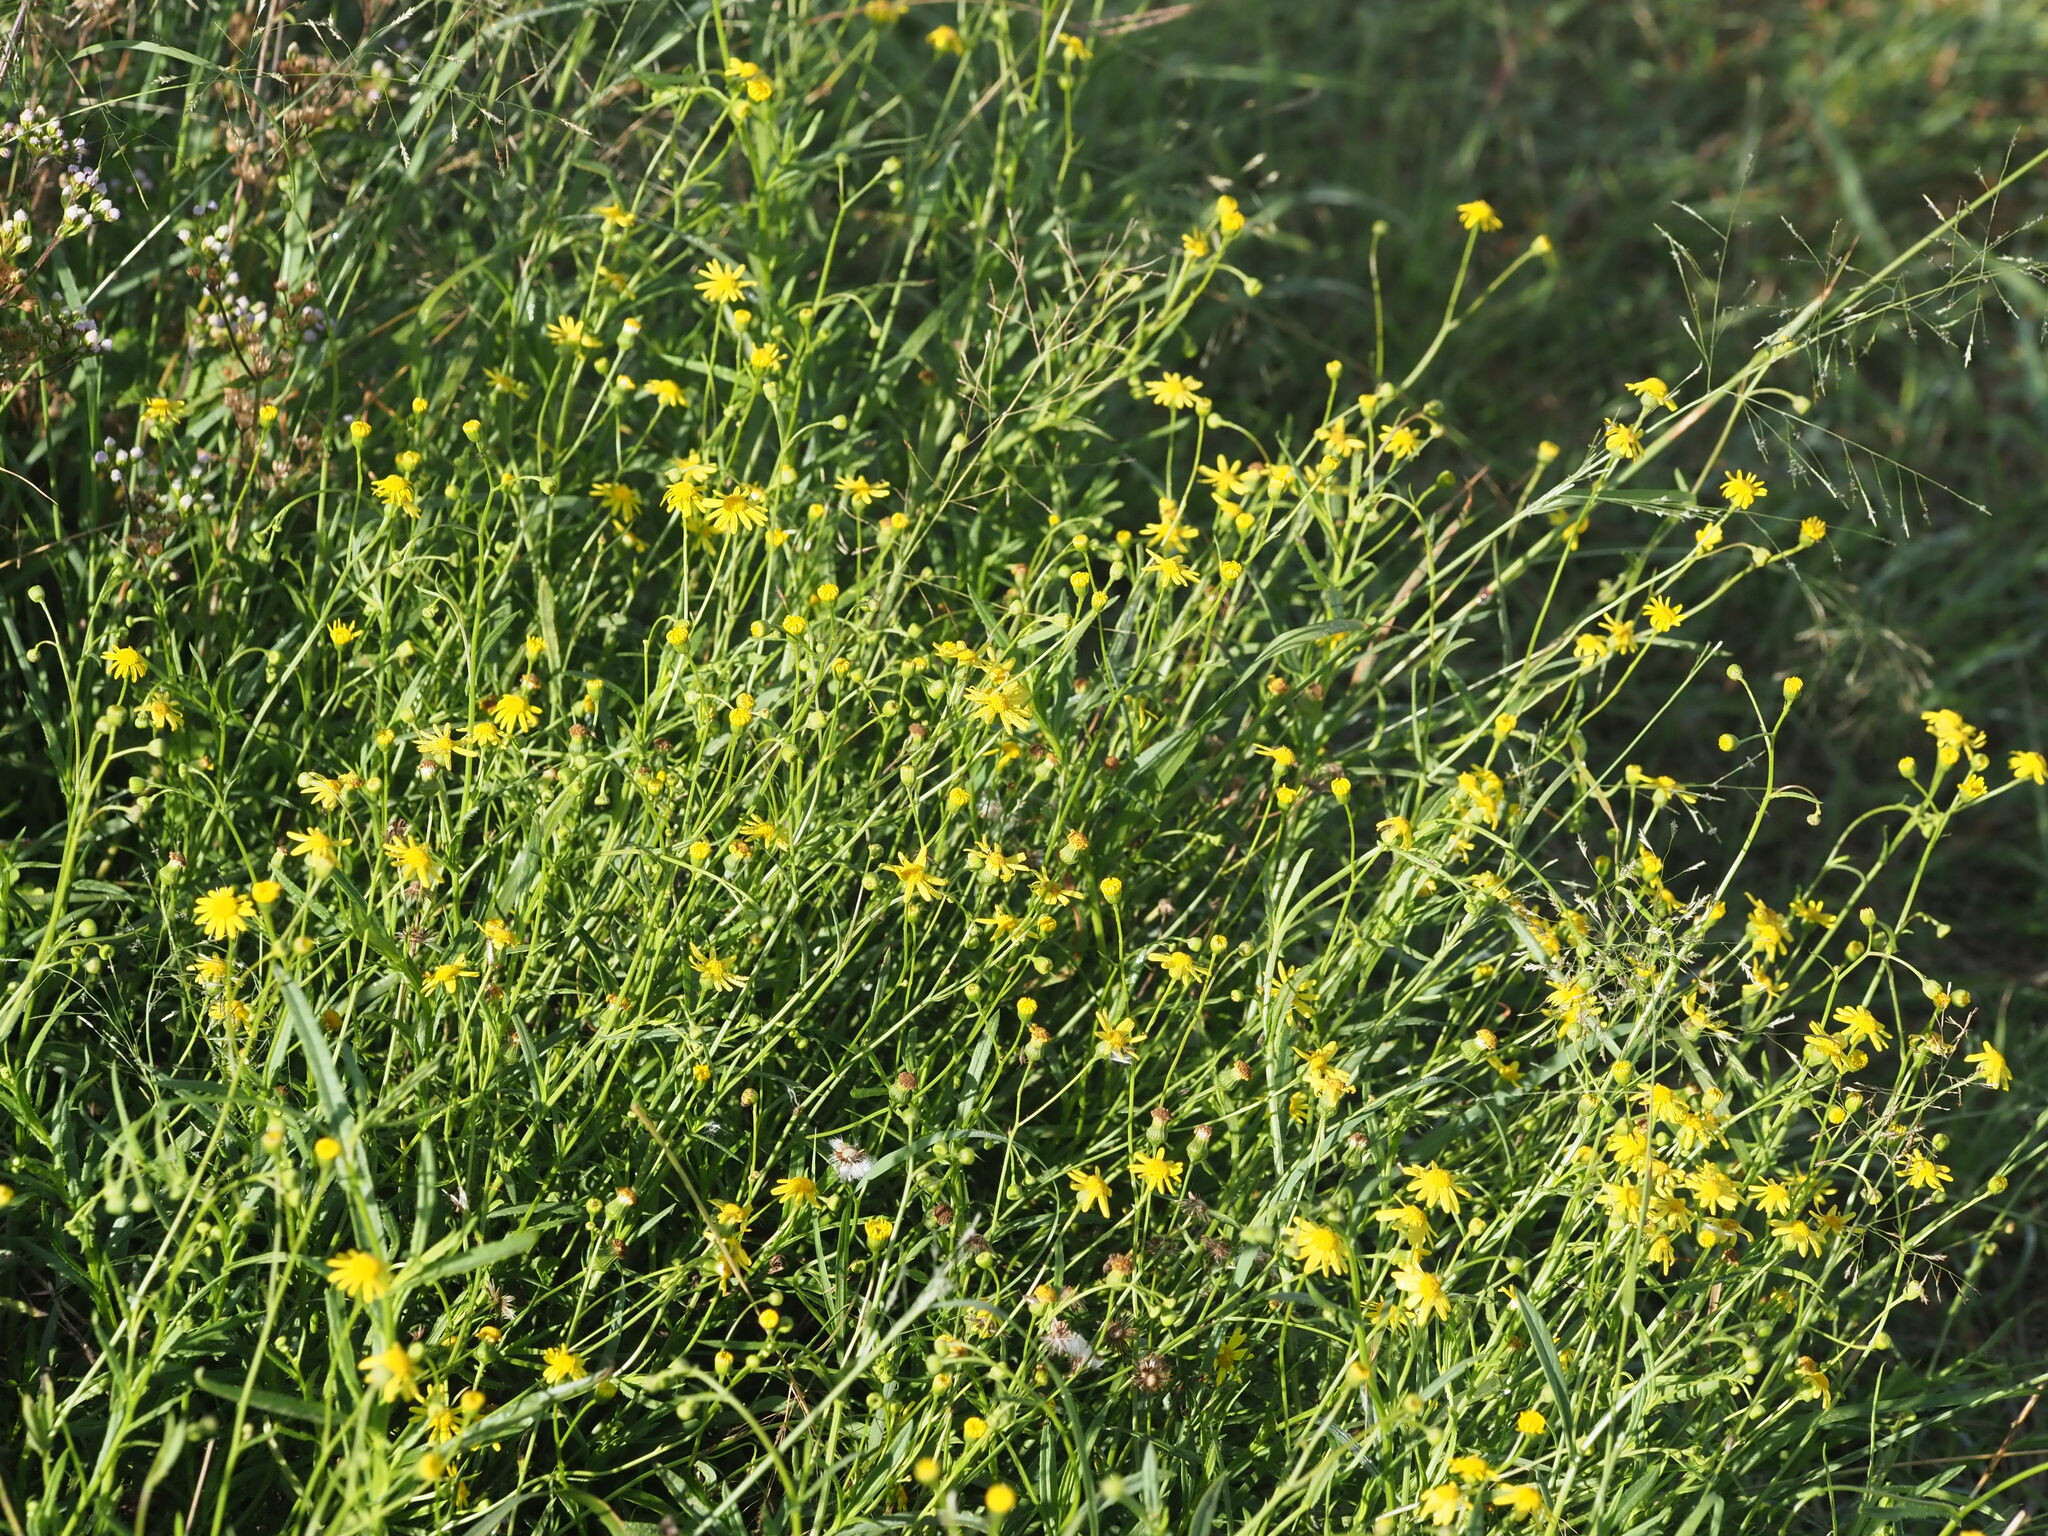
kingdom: Plantae
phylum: Tracheophyta
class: Magnoliopsida
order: Asterales
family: Asteraceae
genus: Senecio
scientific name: Senecio madagascariensis
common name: Madagascar ragwort
